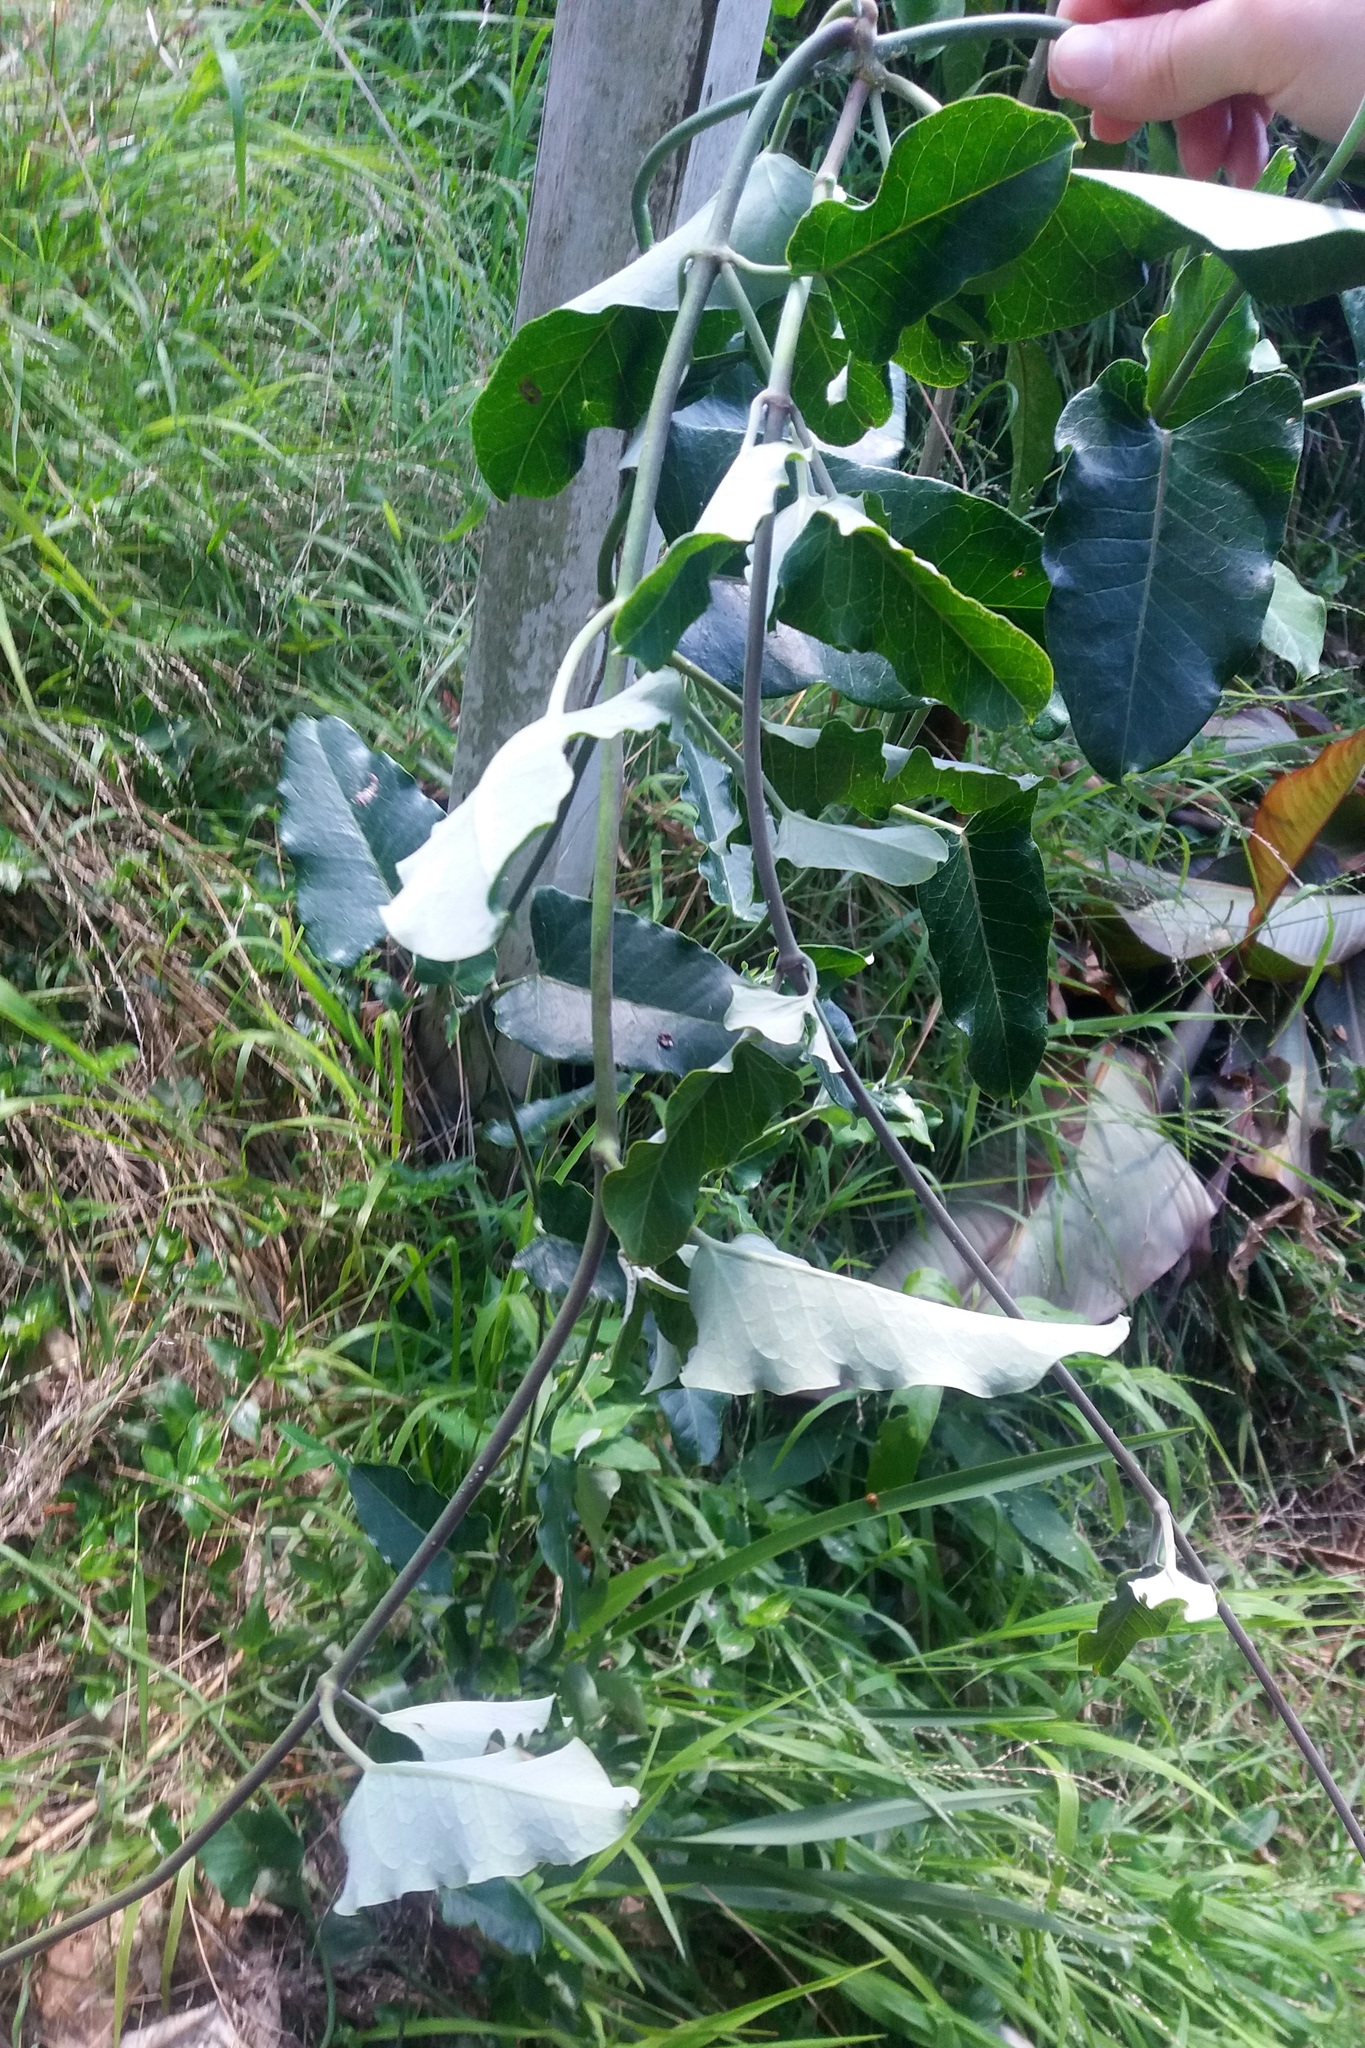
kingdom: Plantae
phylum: Tracheophyta
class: Magnoliopsida
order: Gentianales
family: Apocynaceae
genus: Araujia
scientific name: Araujia sericifera
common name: White bladderflower
